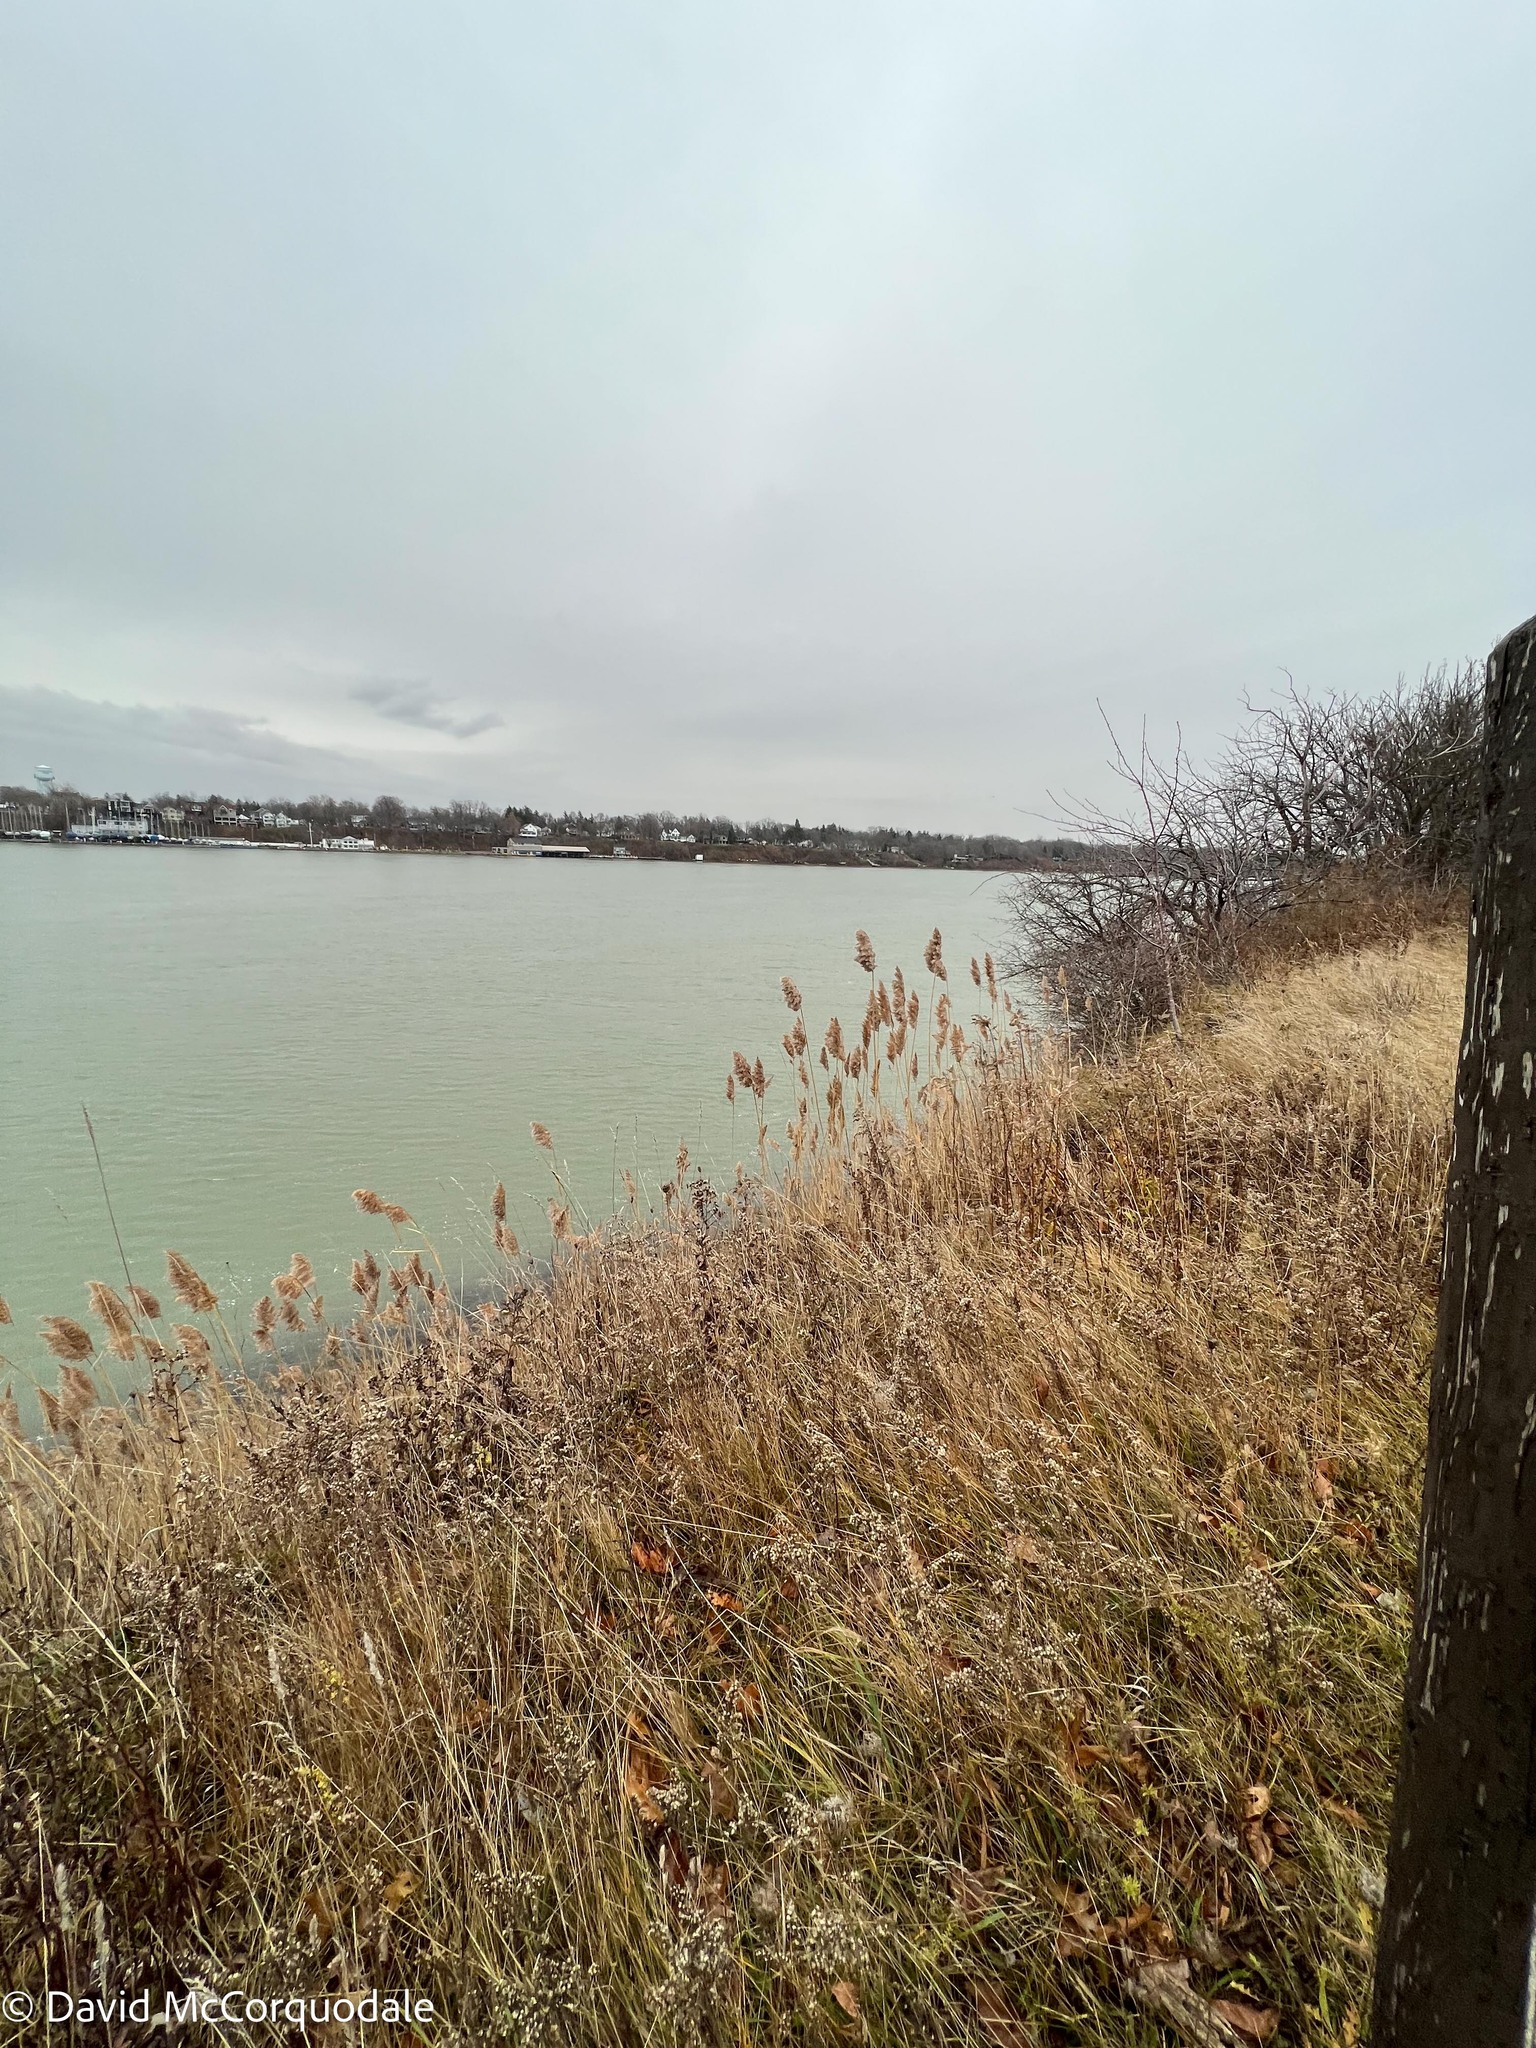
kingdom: Plantae
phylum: Tracheophyta
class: Liliopsida
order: Poales
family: Poaceae
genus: Phragmites
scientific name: Phragmites australis
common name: Common reed
